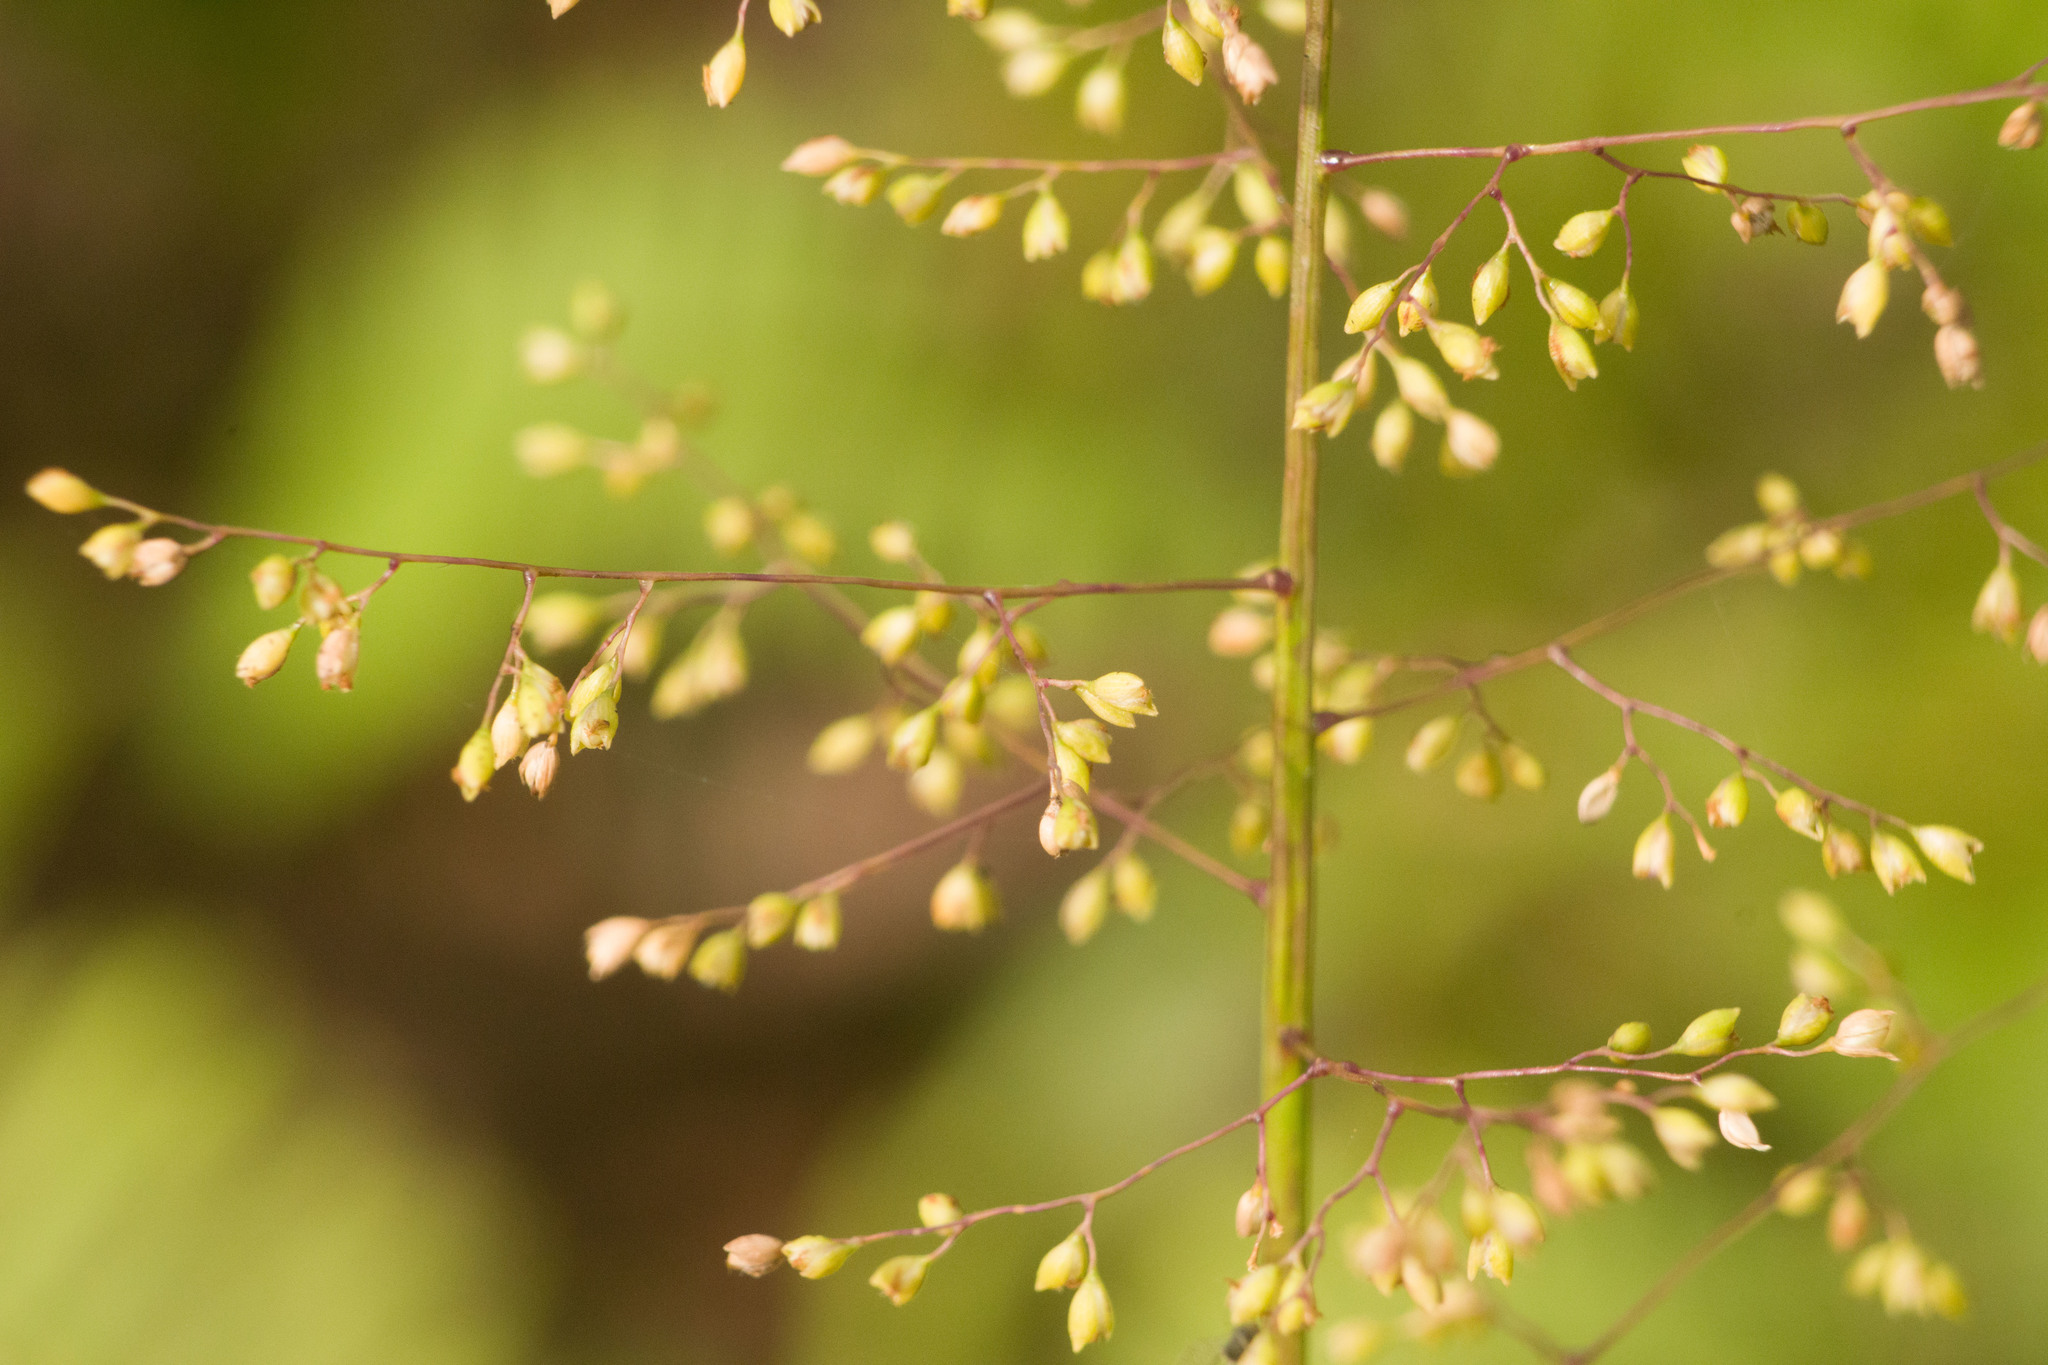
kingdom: Plantae
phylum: Tracheophyta
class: Liliopsida
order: Poales
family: Poaceae
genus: Isachne
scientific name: Isachne distichophylla
